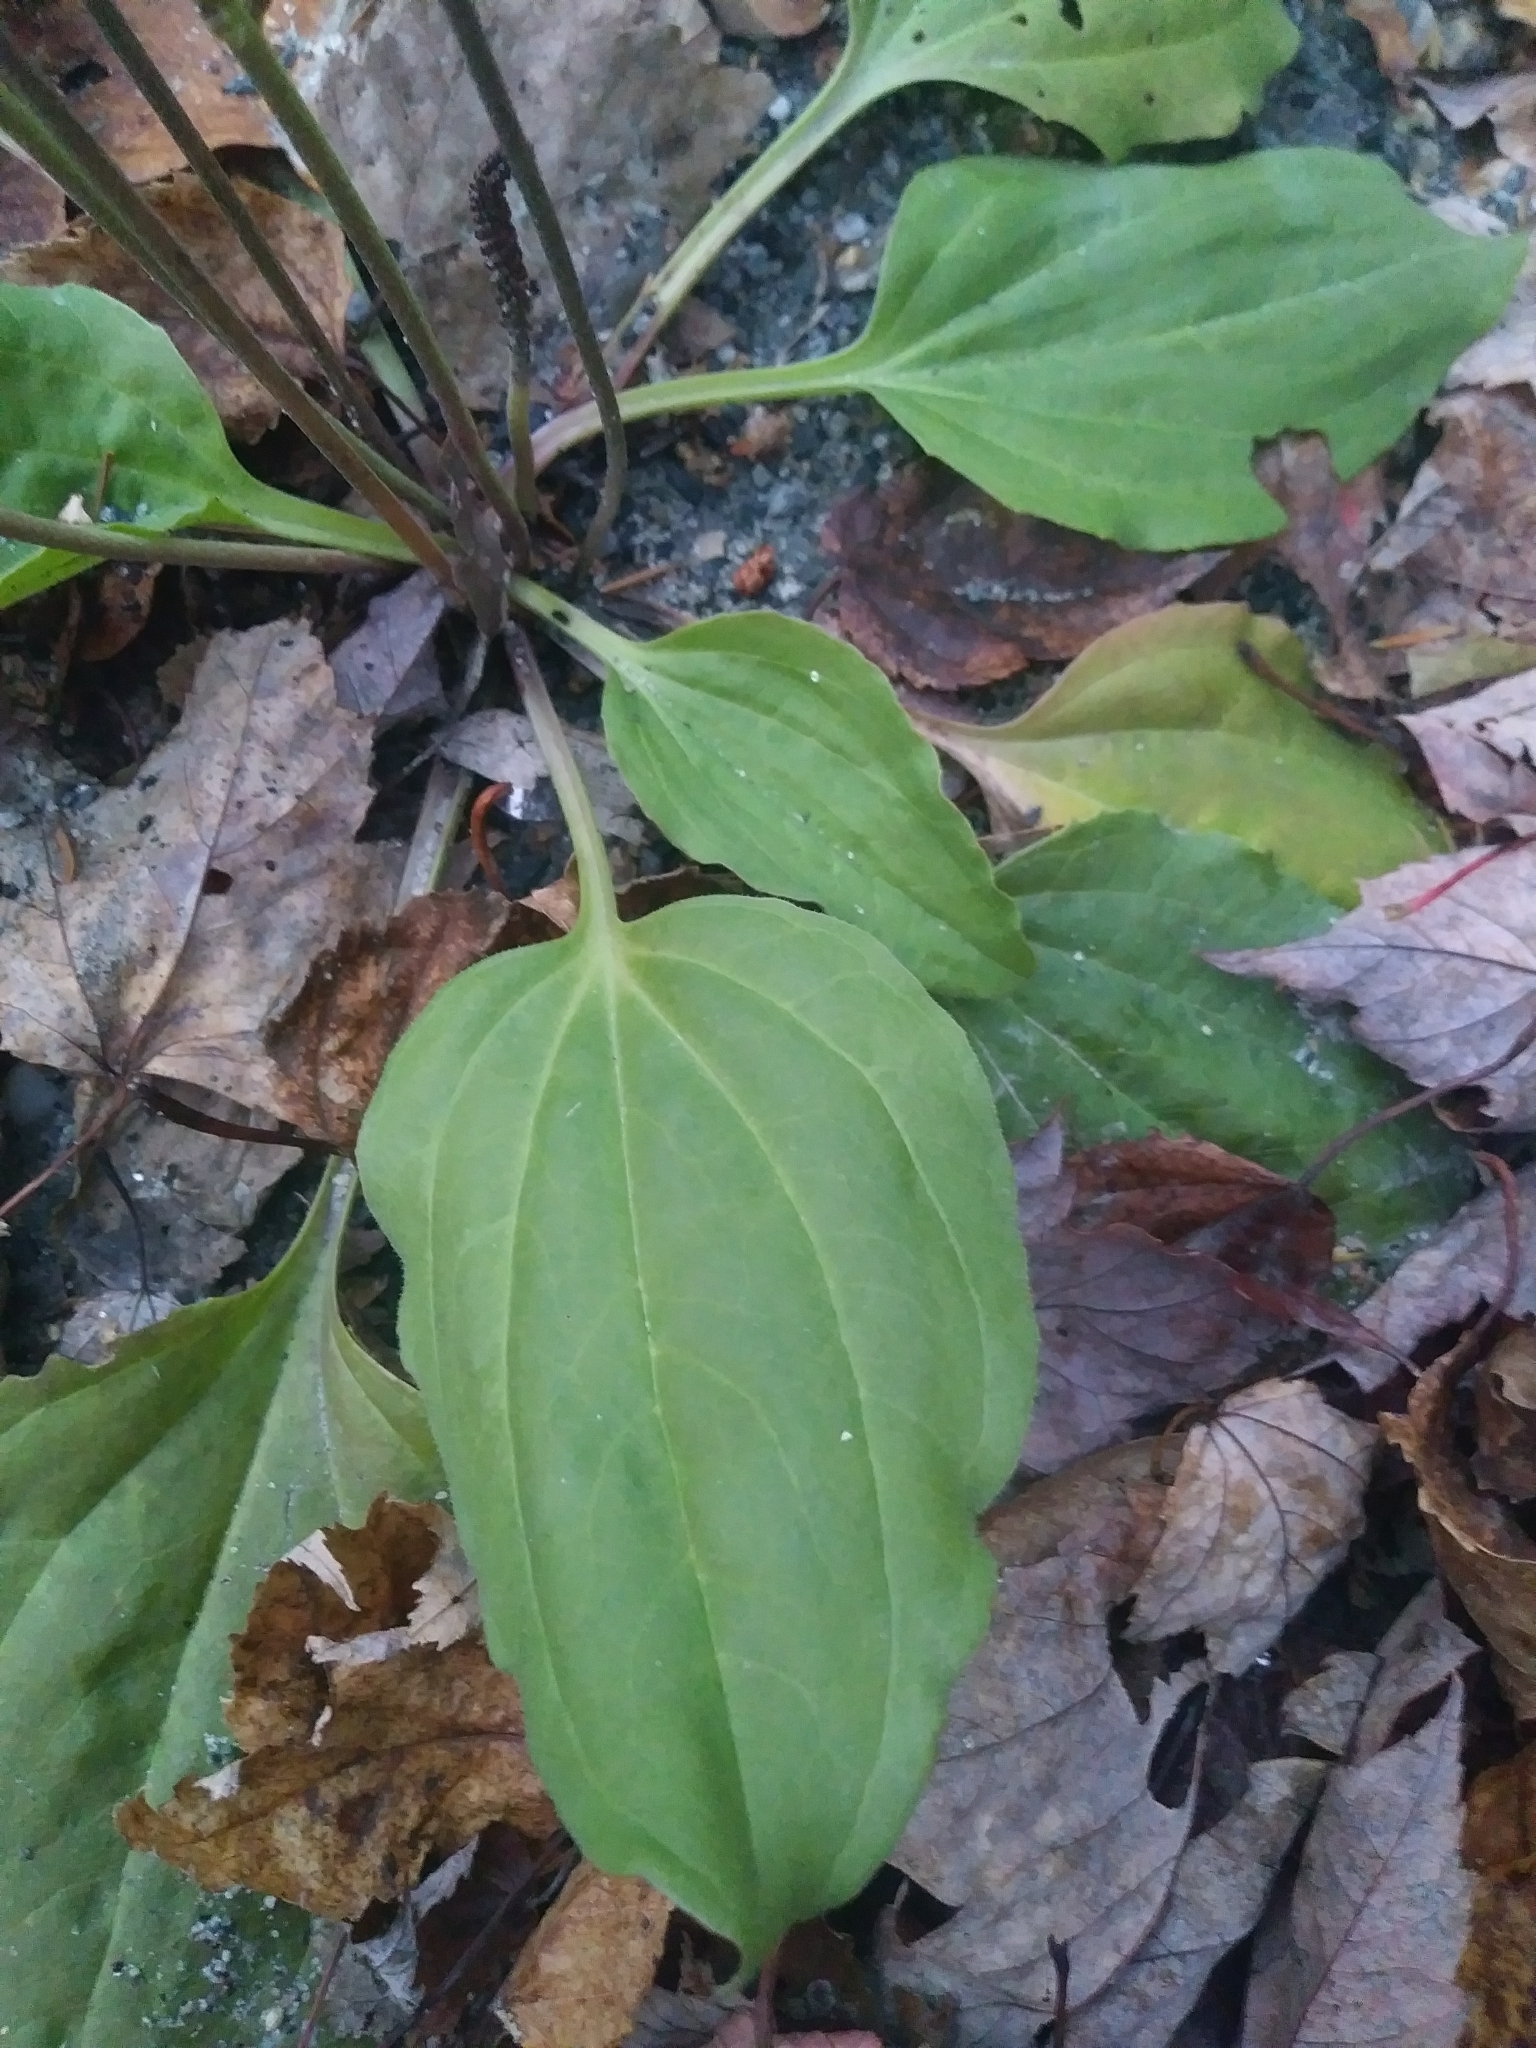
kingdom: Plantae
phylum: Tracheophyta
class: Magnoliopsida
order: Lamiales
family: Plantaginaceae
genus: Plantago
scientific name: Plantago rugelii
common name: American plantain
